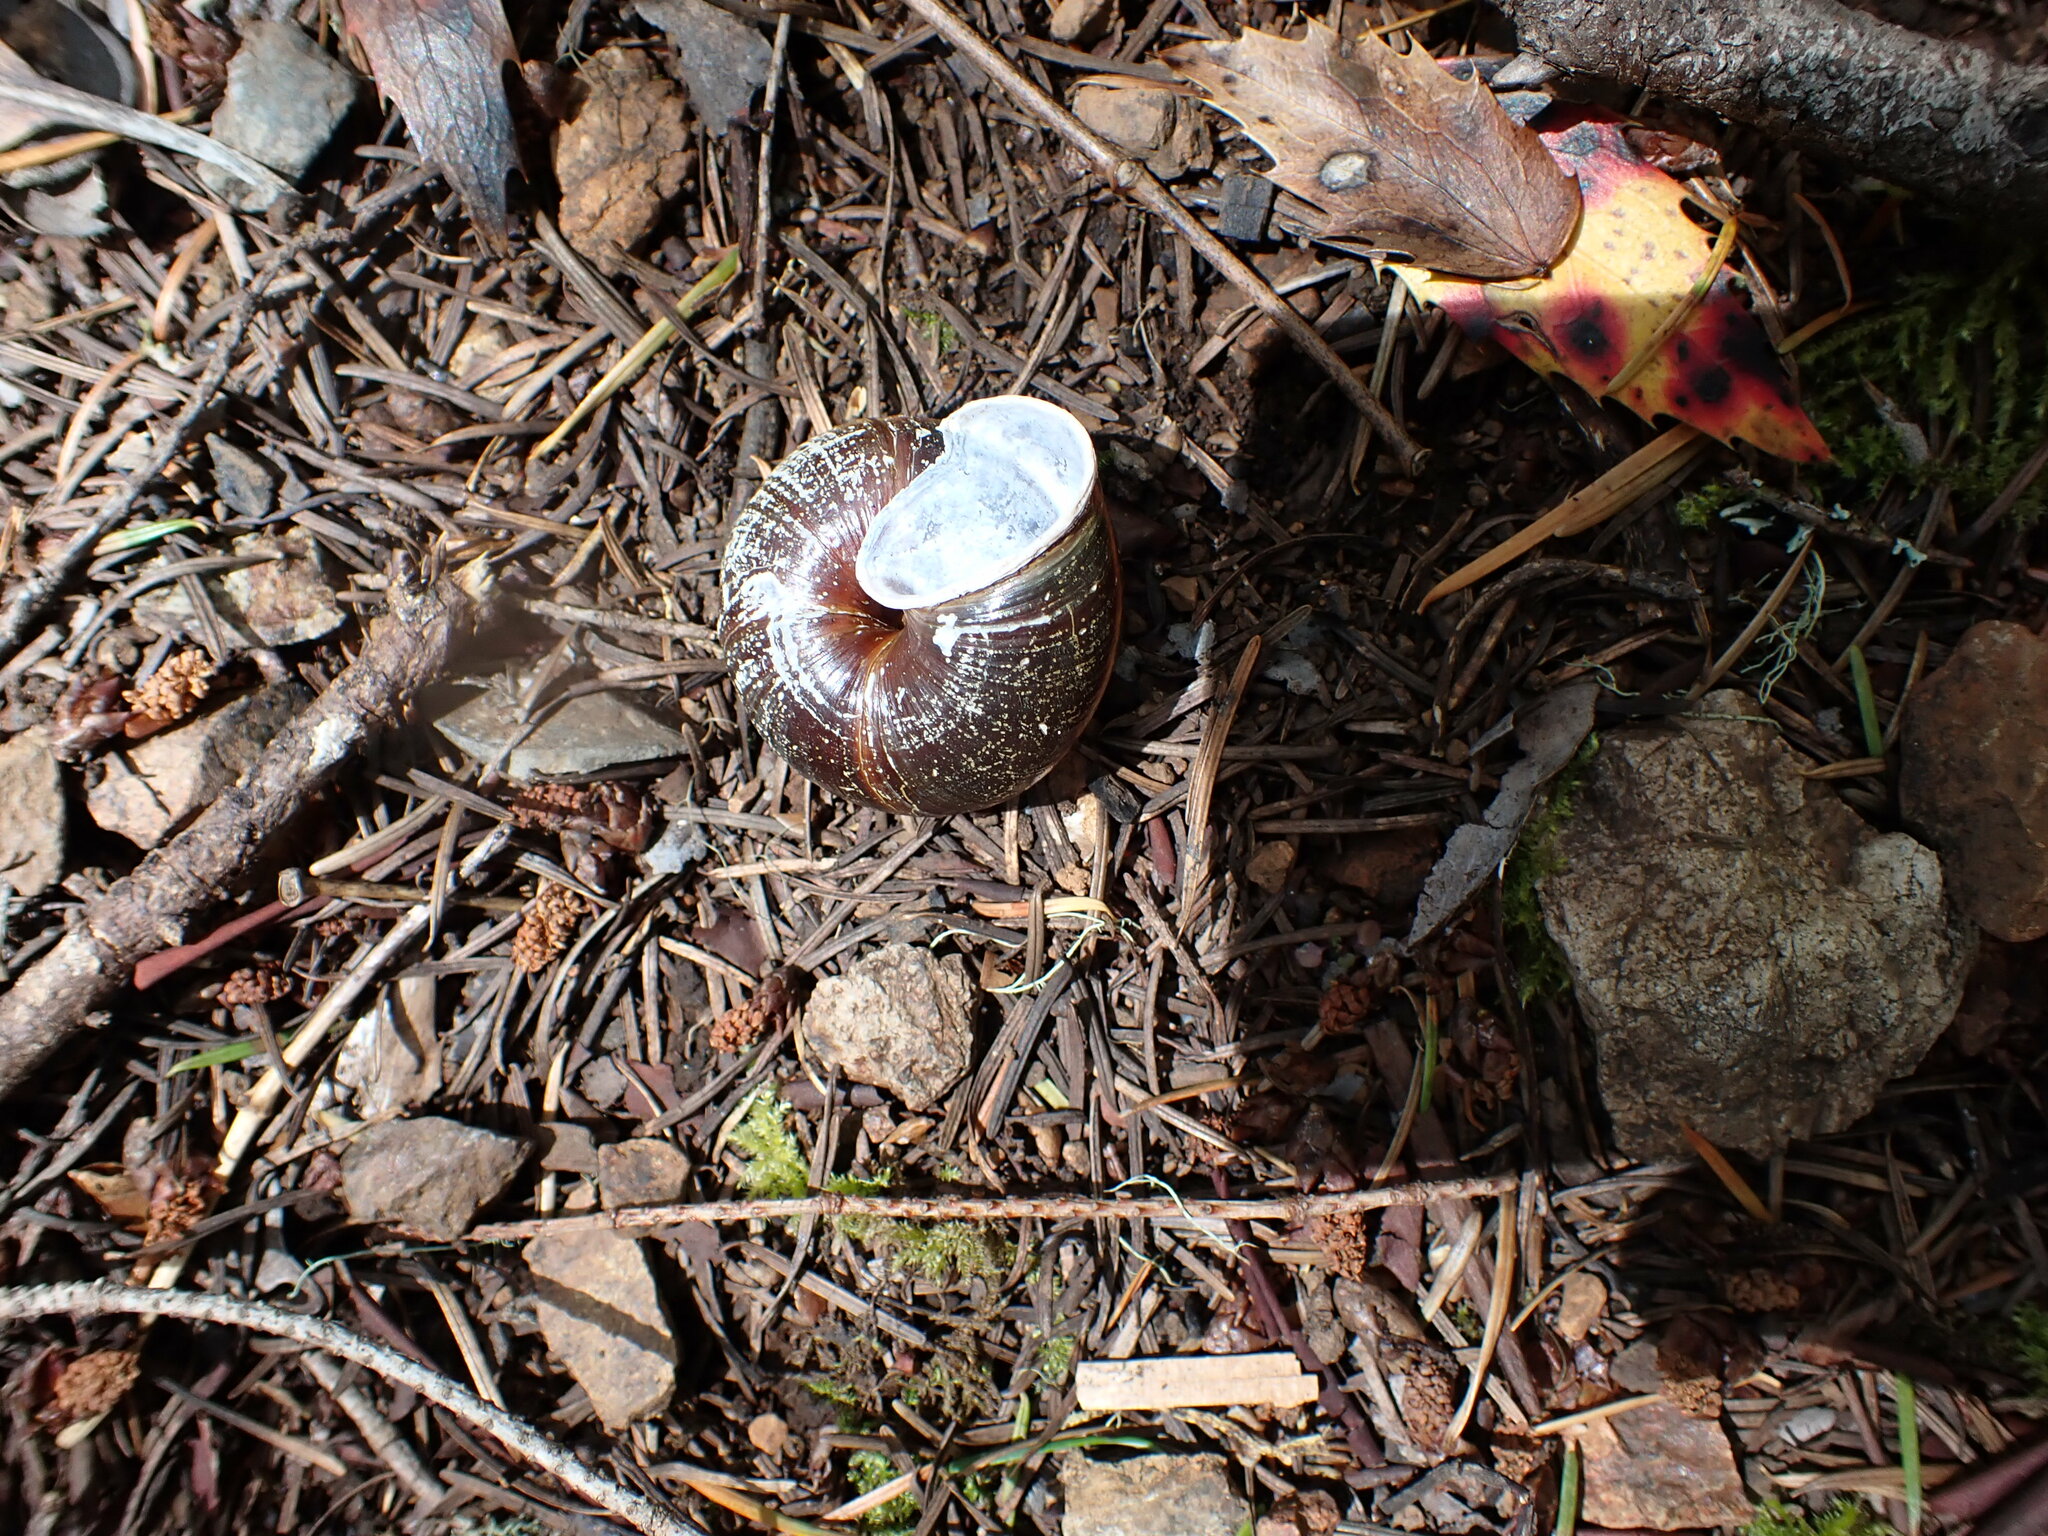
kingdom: Animalia
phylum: Mollusca
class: Gastropoda
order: Stylommatophora
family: Xanthonychidae
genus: Monadenia
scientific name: Monadenia fidelis
